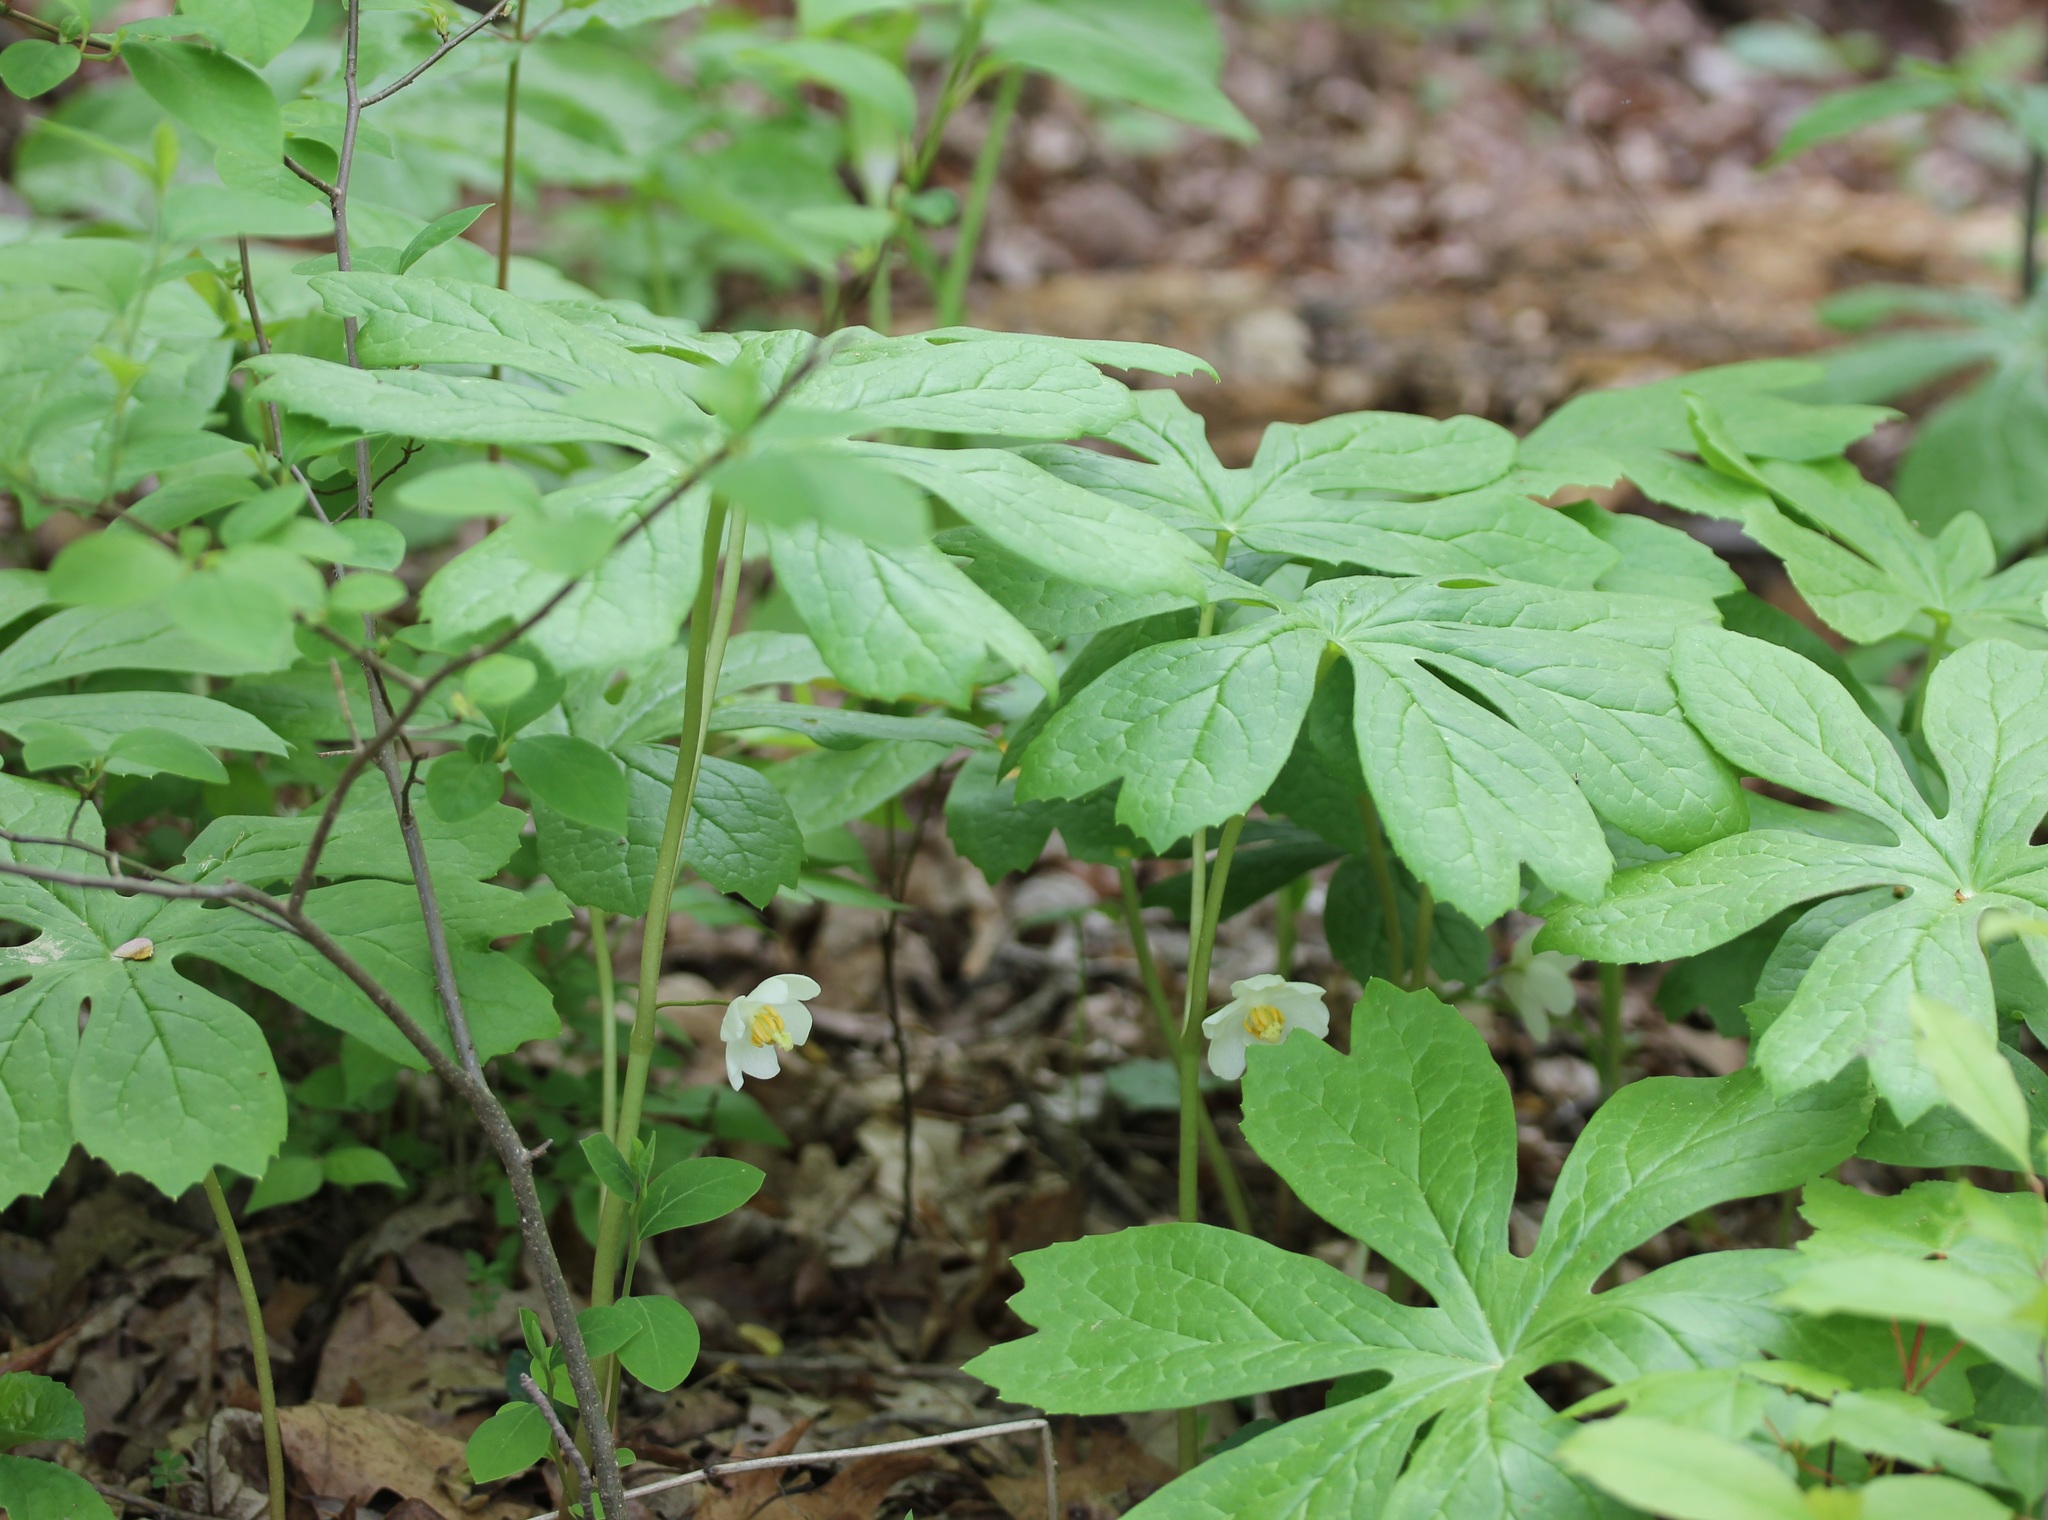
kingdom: Plantae
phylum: Tracheophyta
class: Magnoliopsida
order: Ranunculales
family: Berberidaceae
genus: Podophyllum
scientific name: Podophyllum peltatum
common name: Wild mandrake
